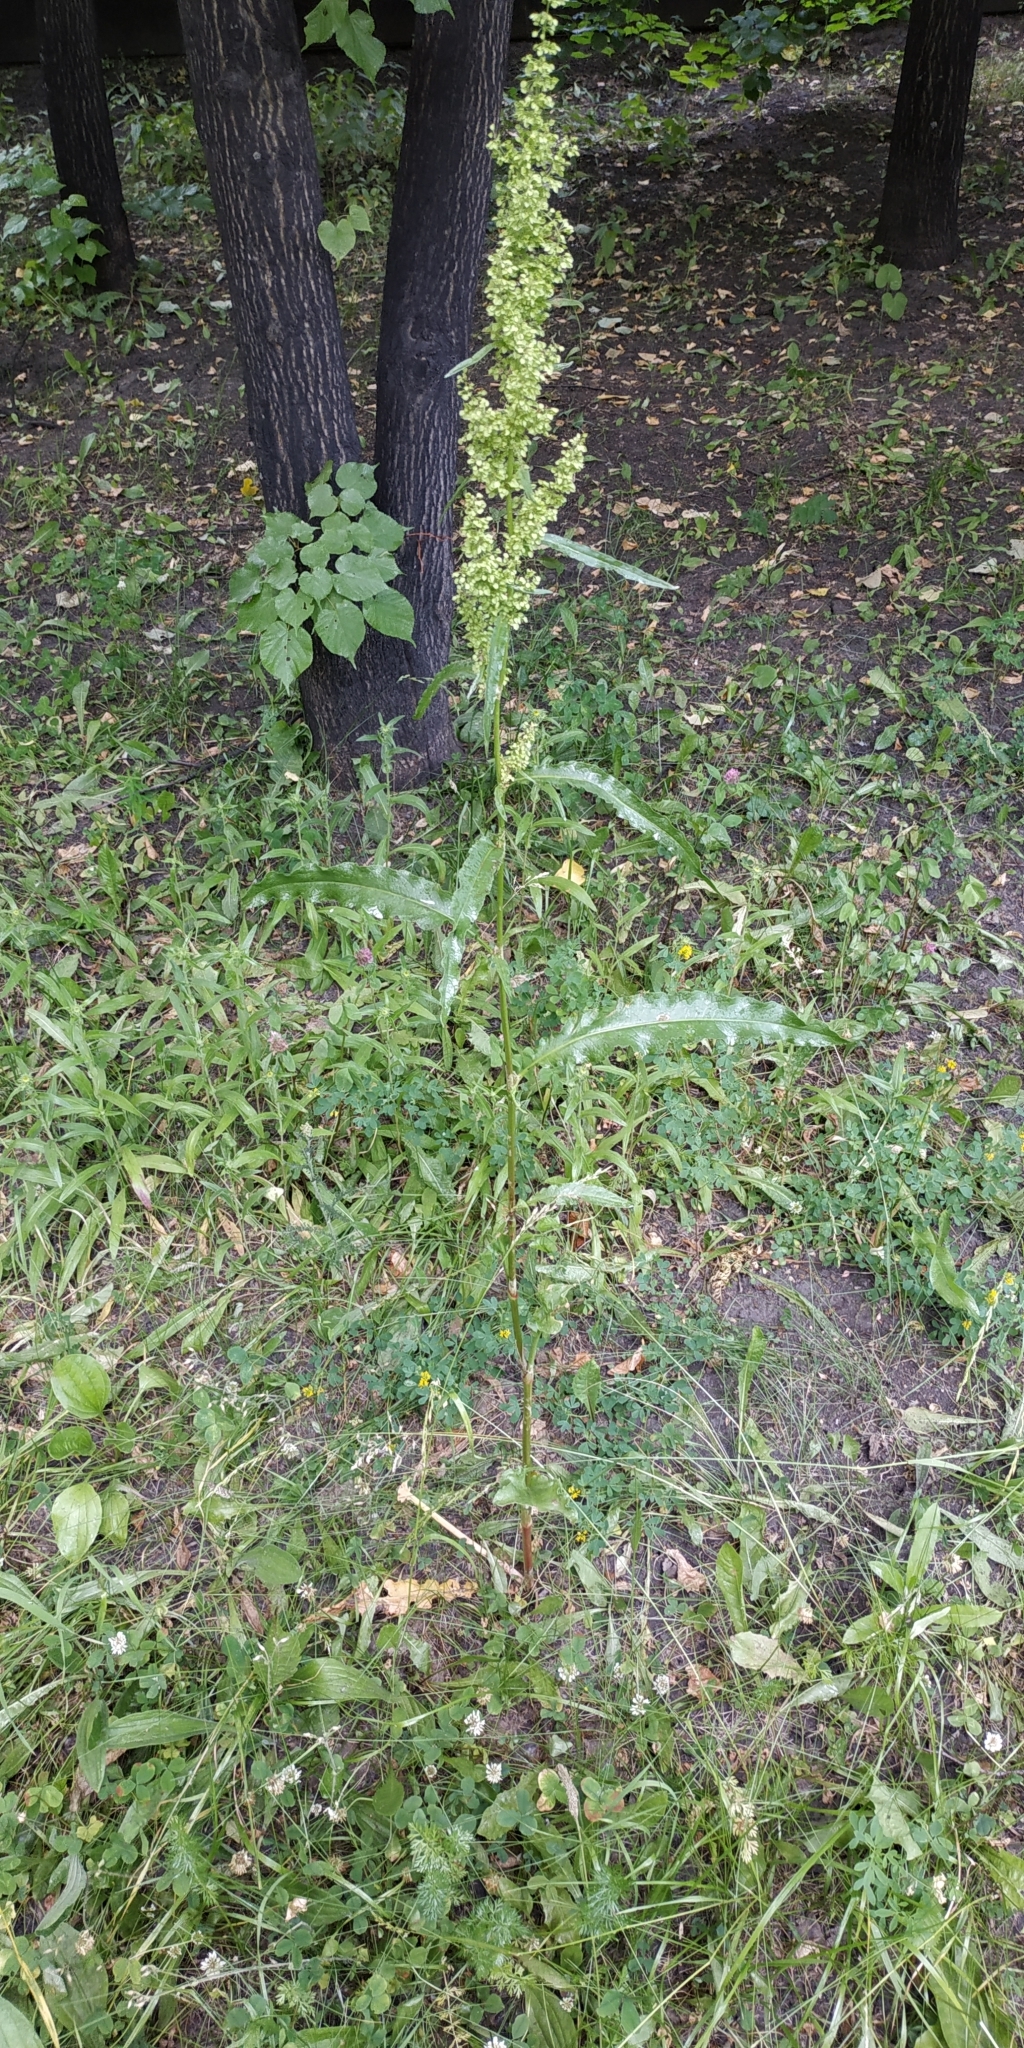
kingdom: Plantae
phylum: Tracheophyta
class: Magnoliopsida
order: Caryophyllales
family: Polygonaceae
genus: Rumex
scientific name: Rumex pseudonatronatus
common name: Field dock
